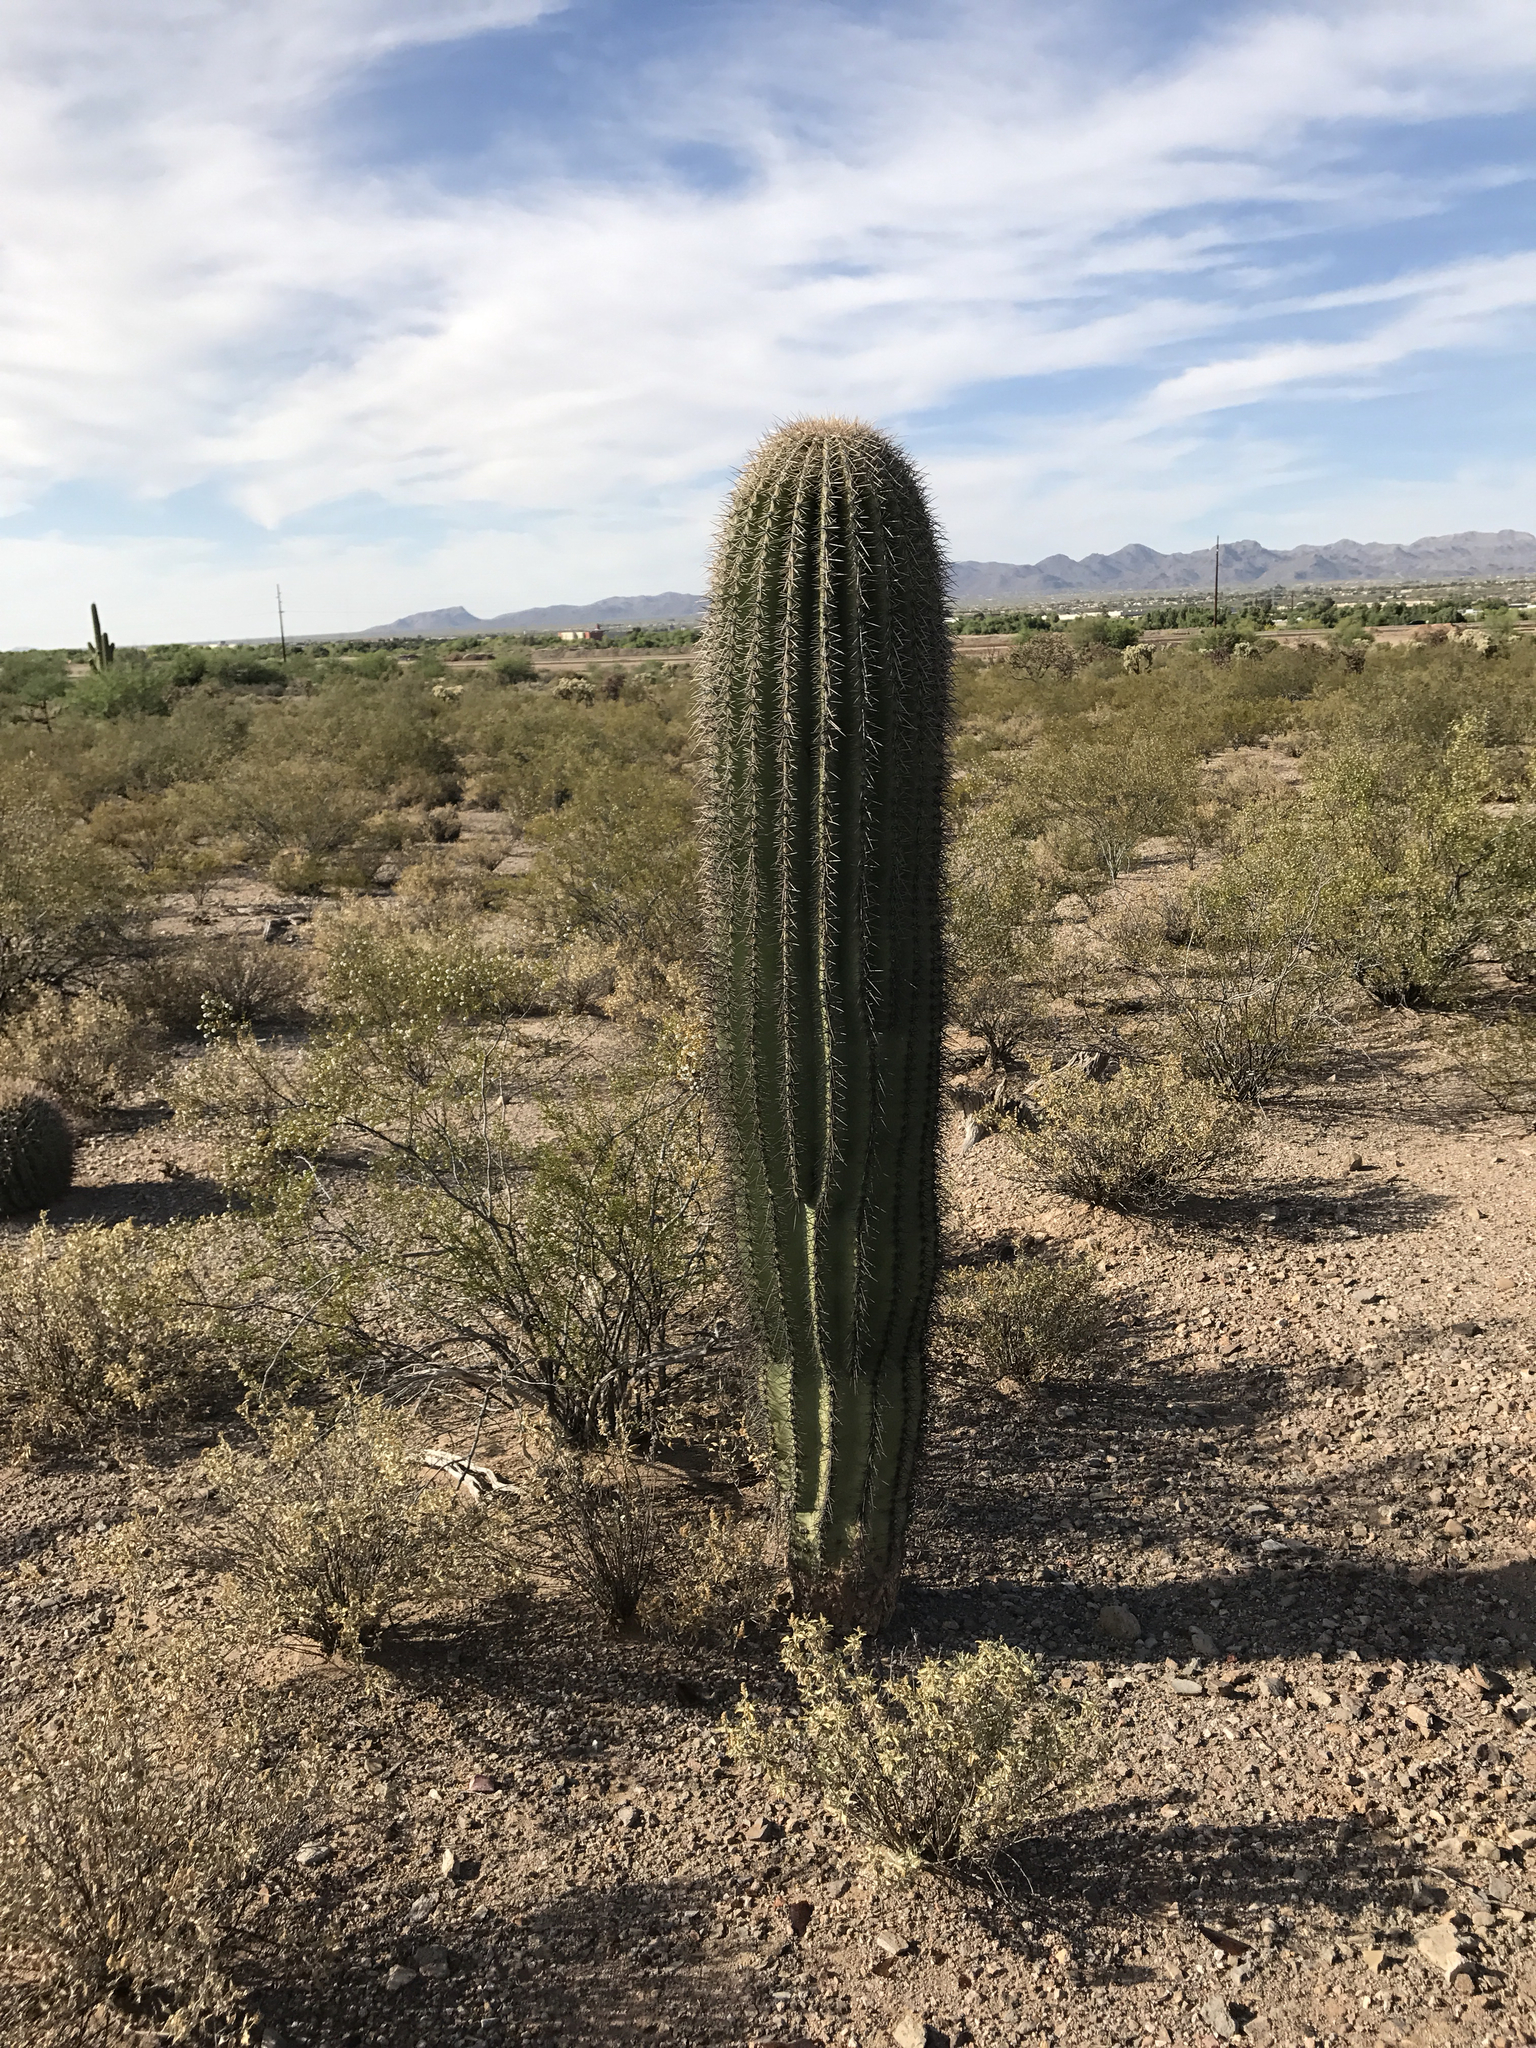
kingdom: Plantae
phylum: Tracheophyta
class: Magnoliopsida
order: Caryophyllales
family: Cactaceae
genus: Carnegiea
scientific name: Carnegiea gigantea
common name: Saguaro
